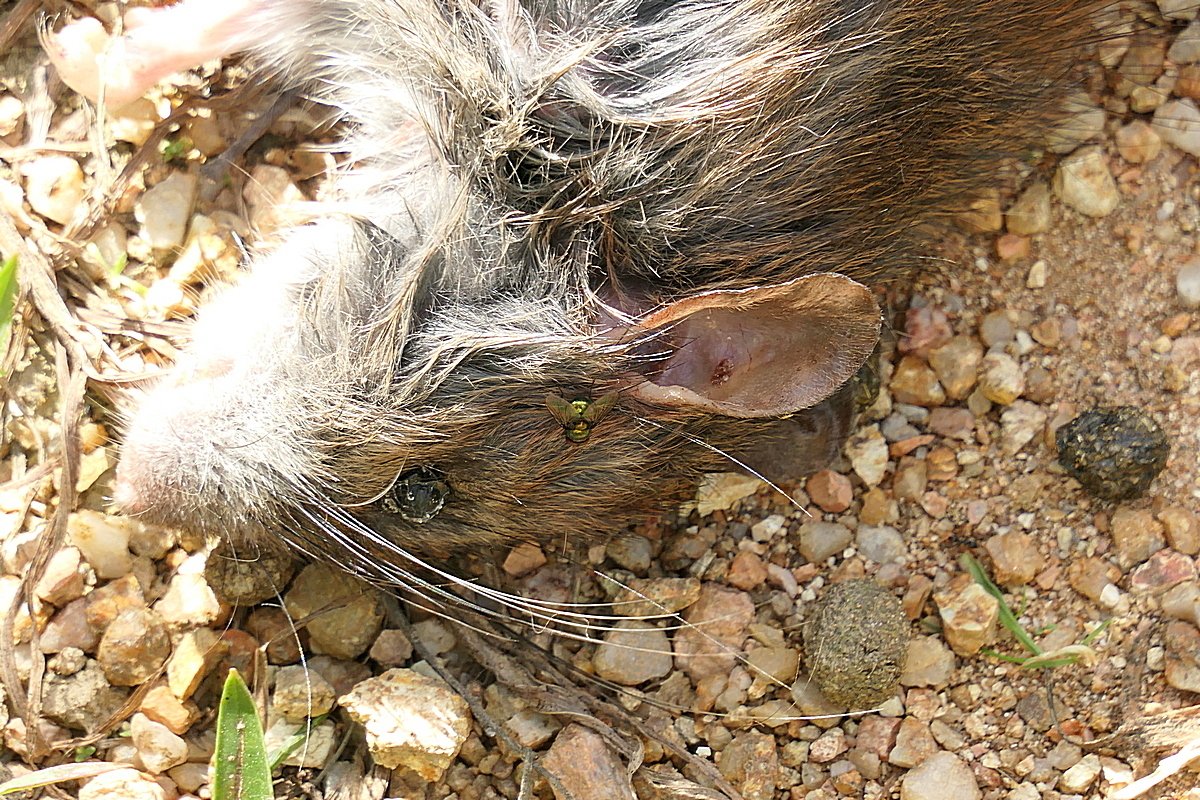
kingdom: Animalia
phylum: Chordata
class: Mammalia
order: Rodentia
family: Muridae
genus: Rattus
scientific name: Rattus fuscipes
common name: Australian bush rat
